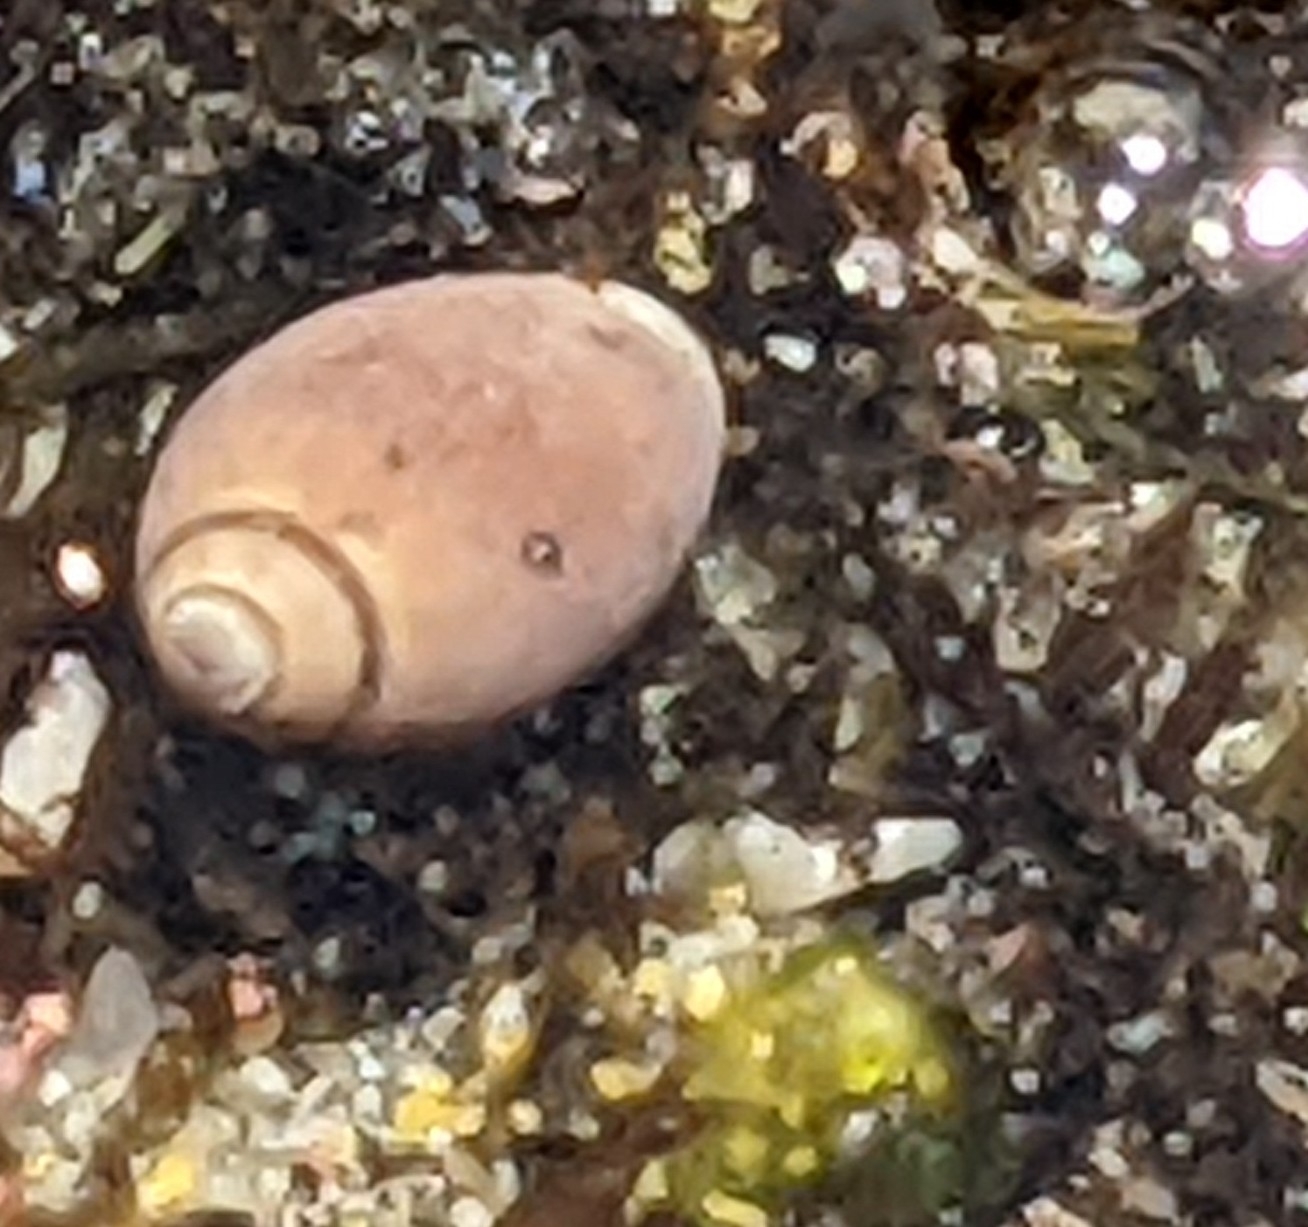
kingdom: Animalia
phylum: Mollusca
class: Gastropoda
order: Neogastropoda
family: Olividae
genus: Callianax
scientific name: Callianax biplicata
